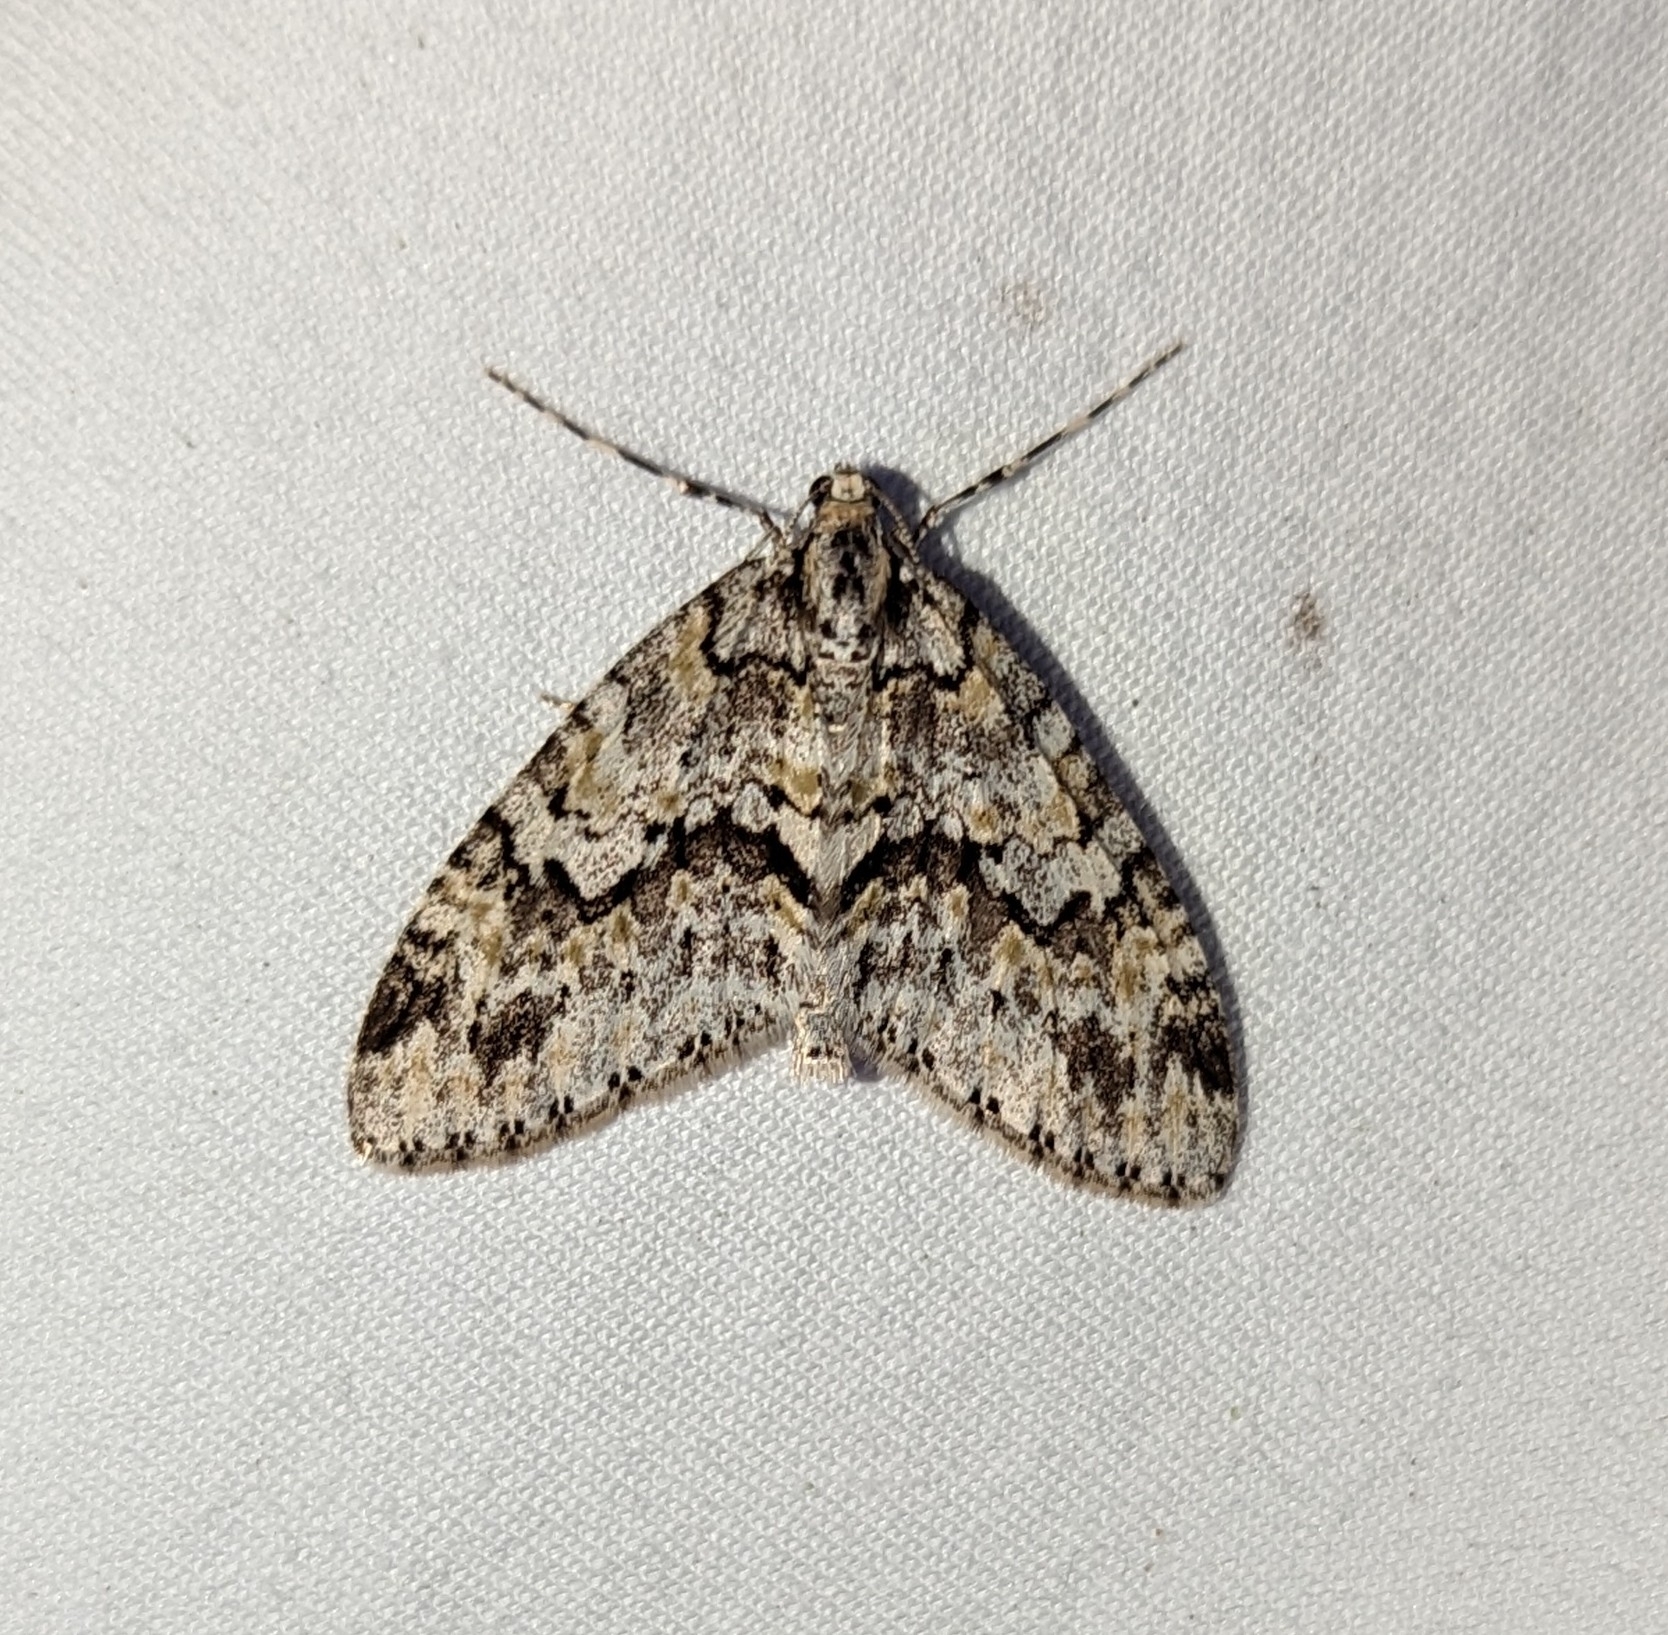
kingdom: Animalia
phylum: Arthropoda
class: Insecta
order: Lepidoptera
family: Geometridae
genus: Cladara
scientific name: Cladara limitaria
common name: Mottled gray carpet
